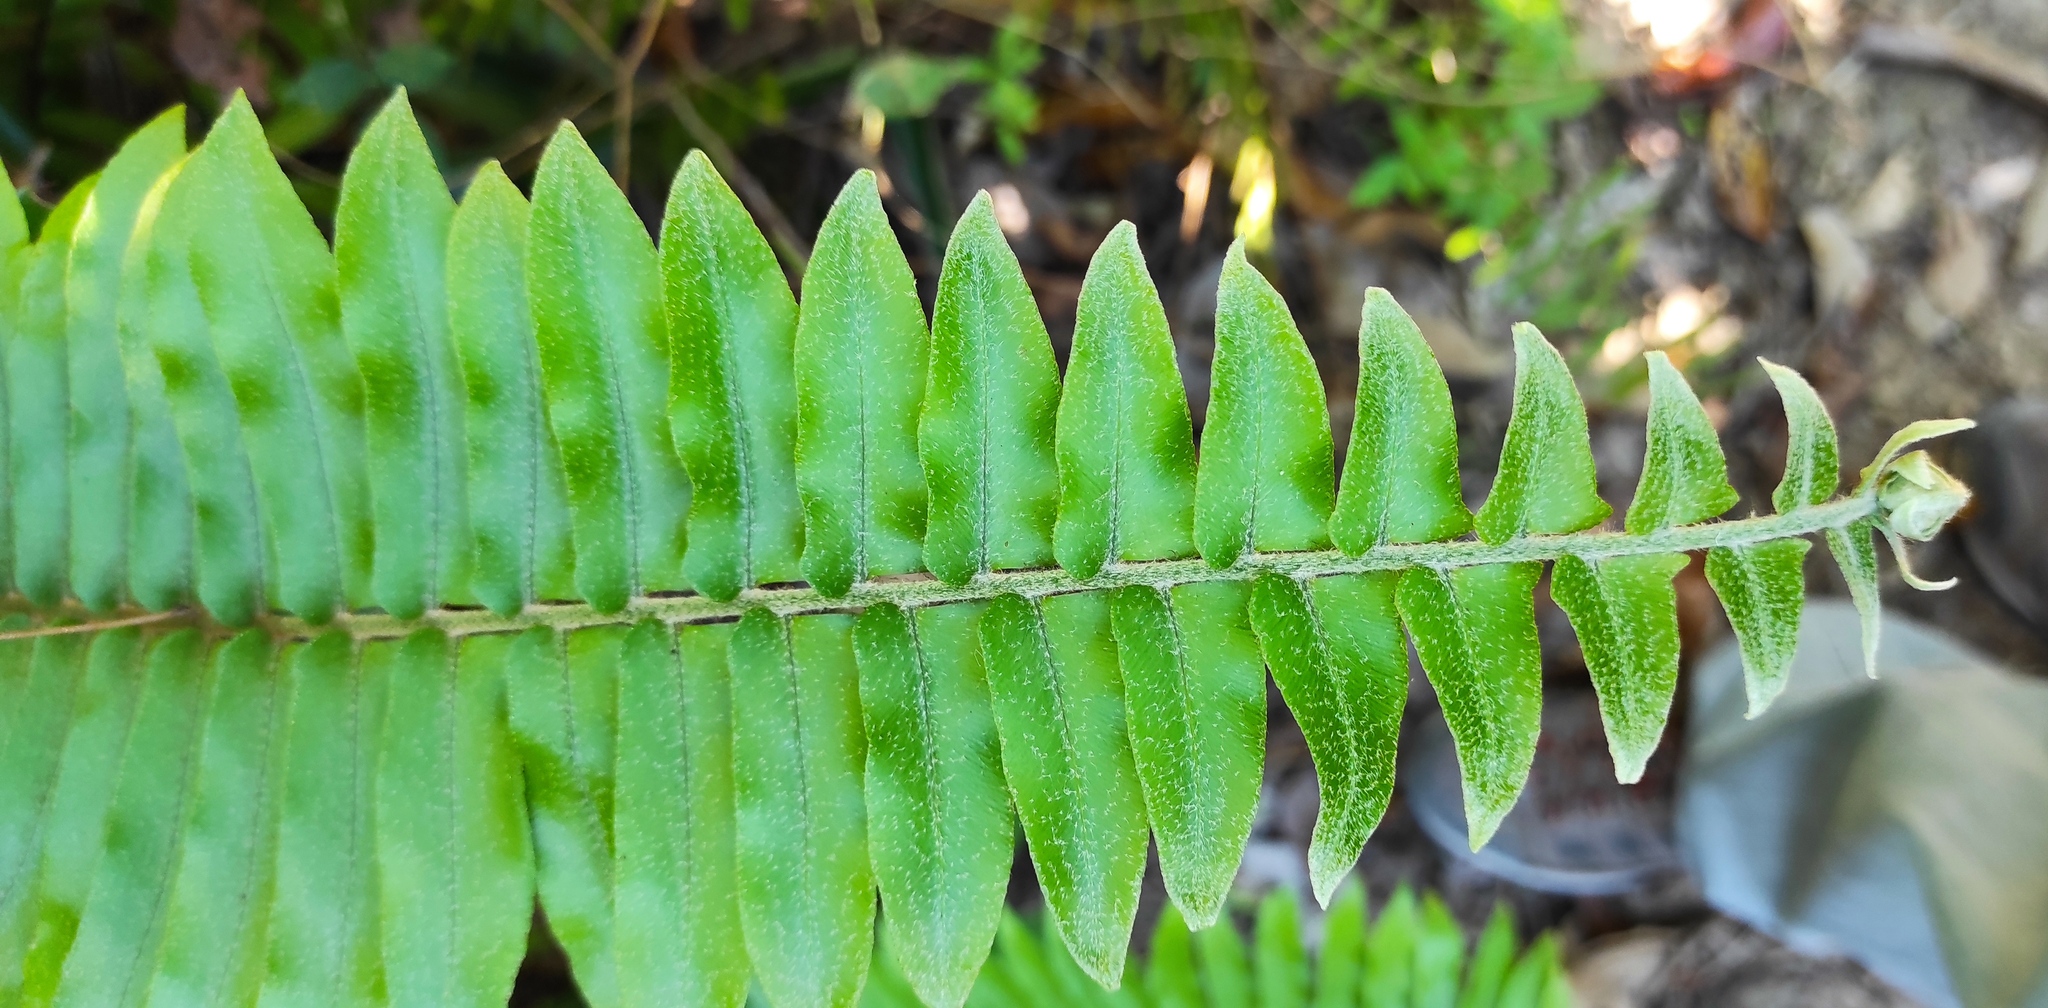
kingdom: Plantae
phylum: Tracheophyta
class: Polypodiopsida
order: Polypodiales
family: Nephrolepidaceae
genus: Nephrolepis
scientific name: Nephrolepis brownii
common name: Asian swordfern
